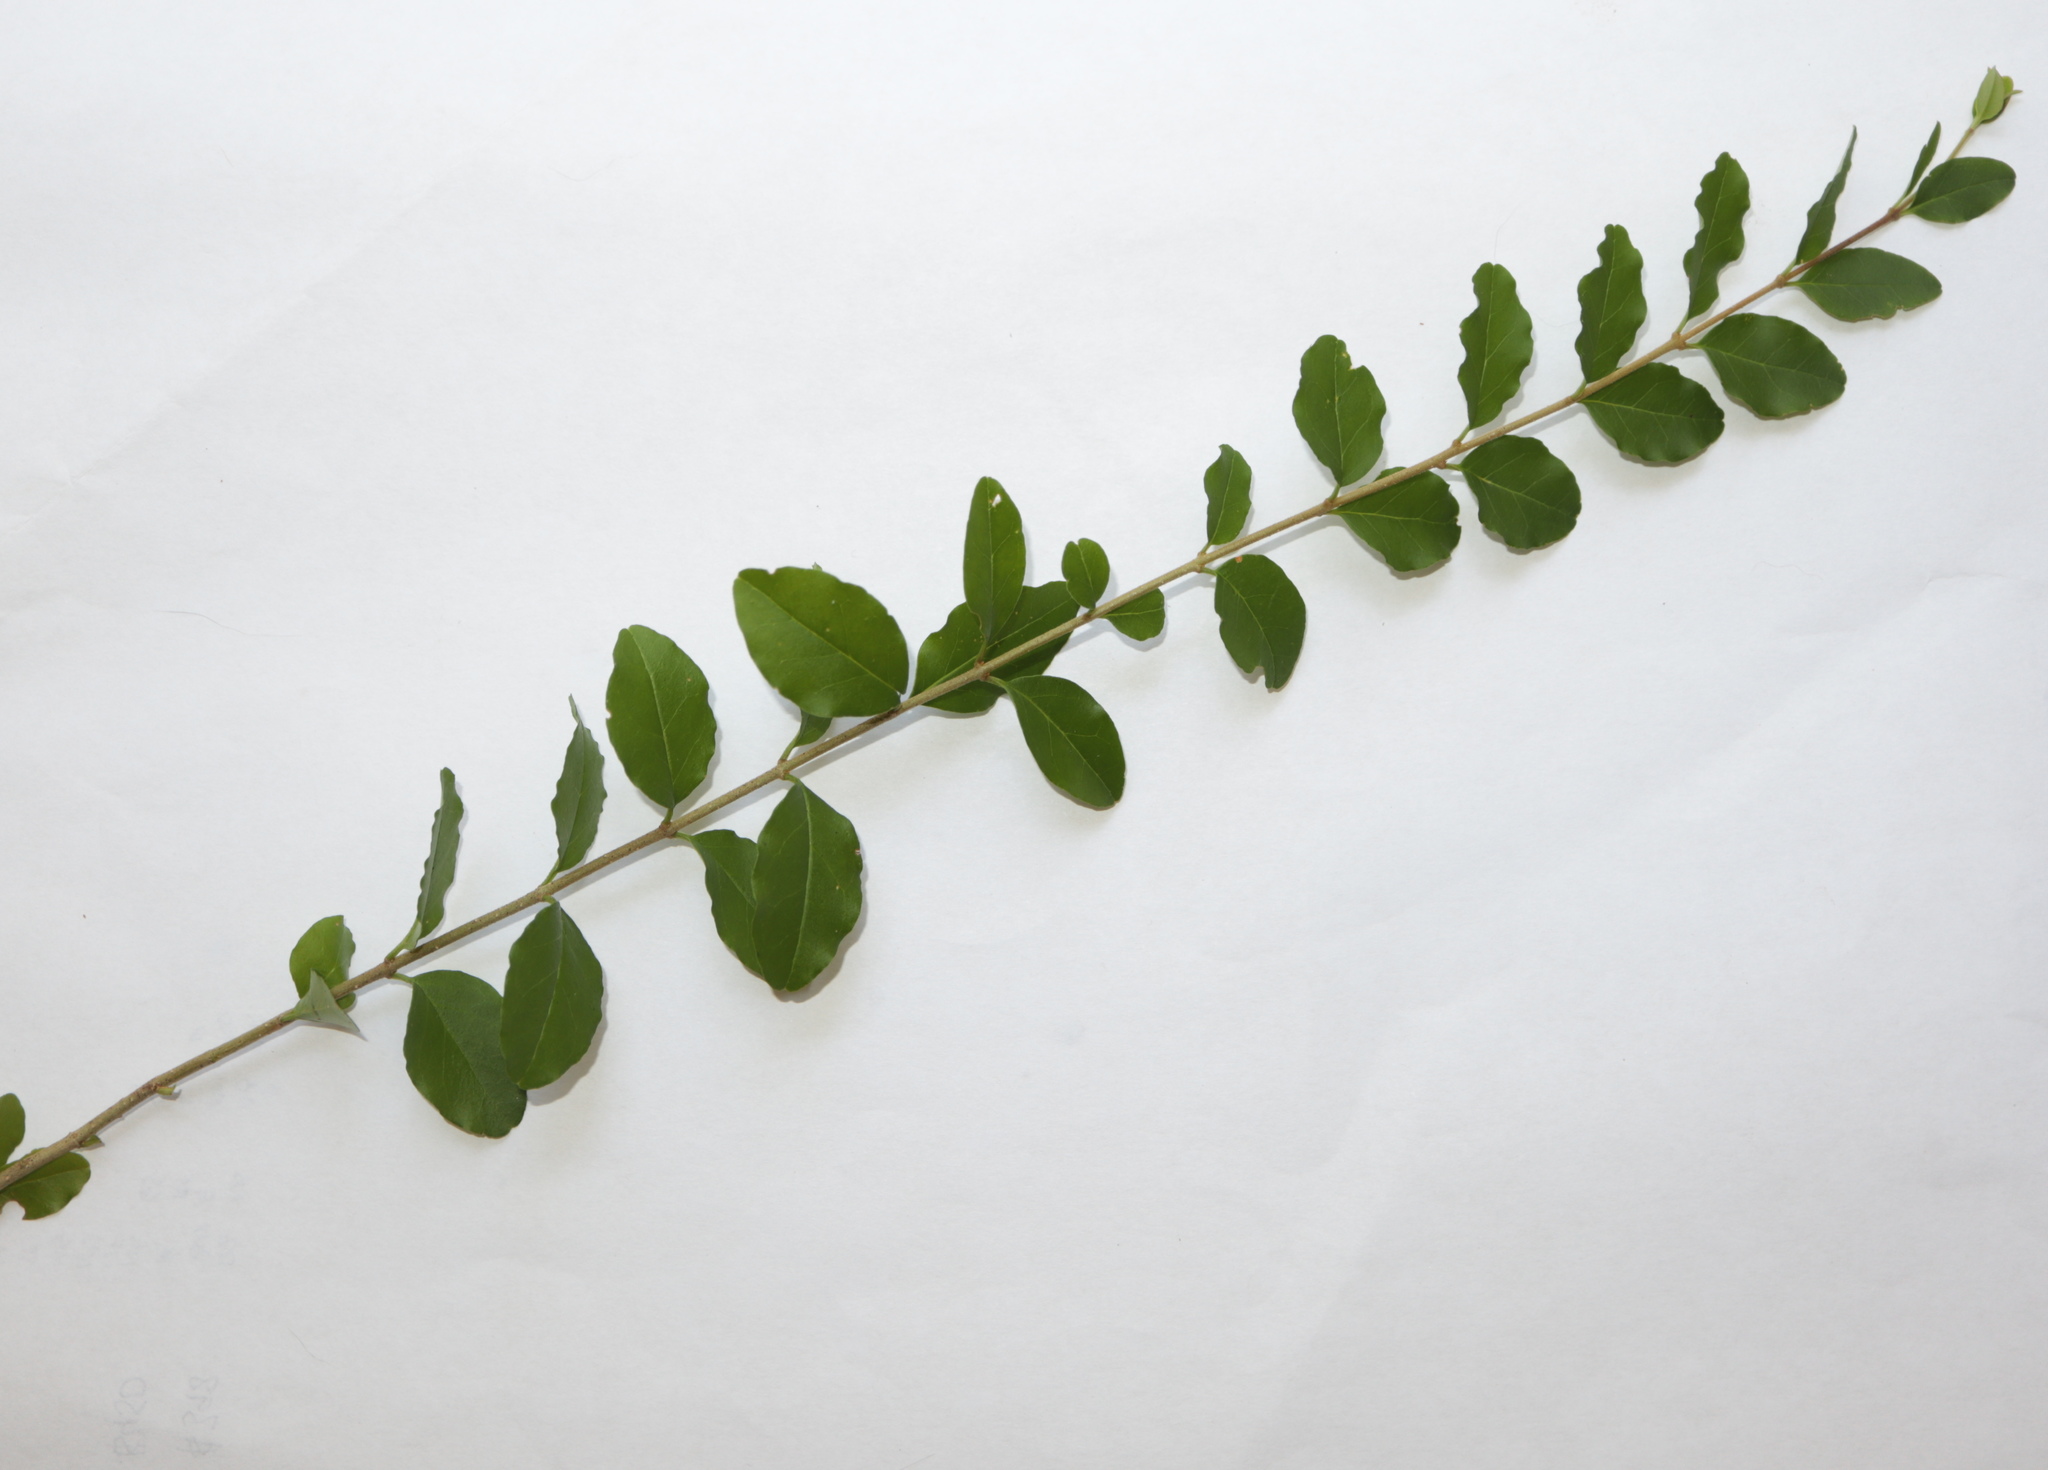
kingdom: Plantae
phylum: Tracheophyta
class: Magnoliopsida
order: Lamiales
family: Oleaceae
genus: Ligustrum
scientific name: Ligustrum sinense
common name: Chinese privet
